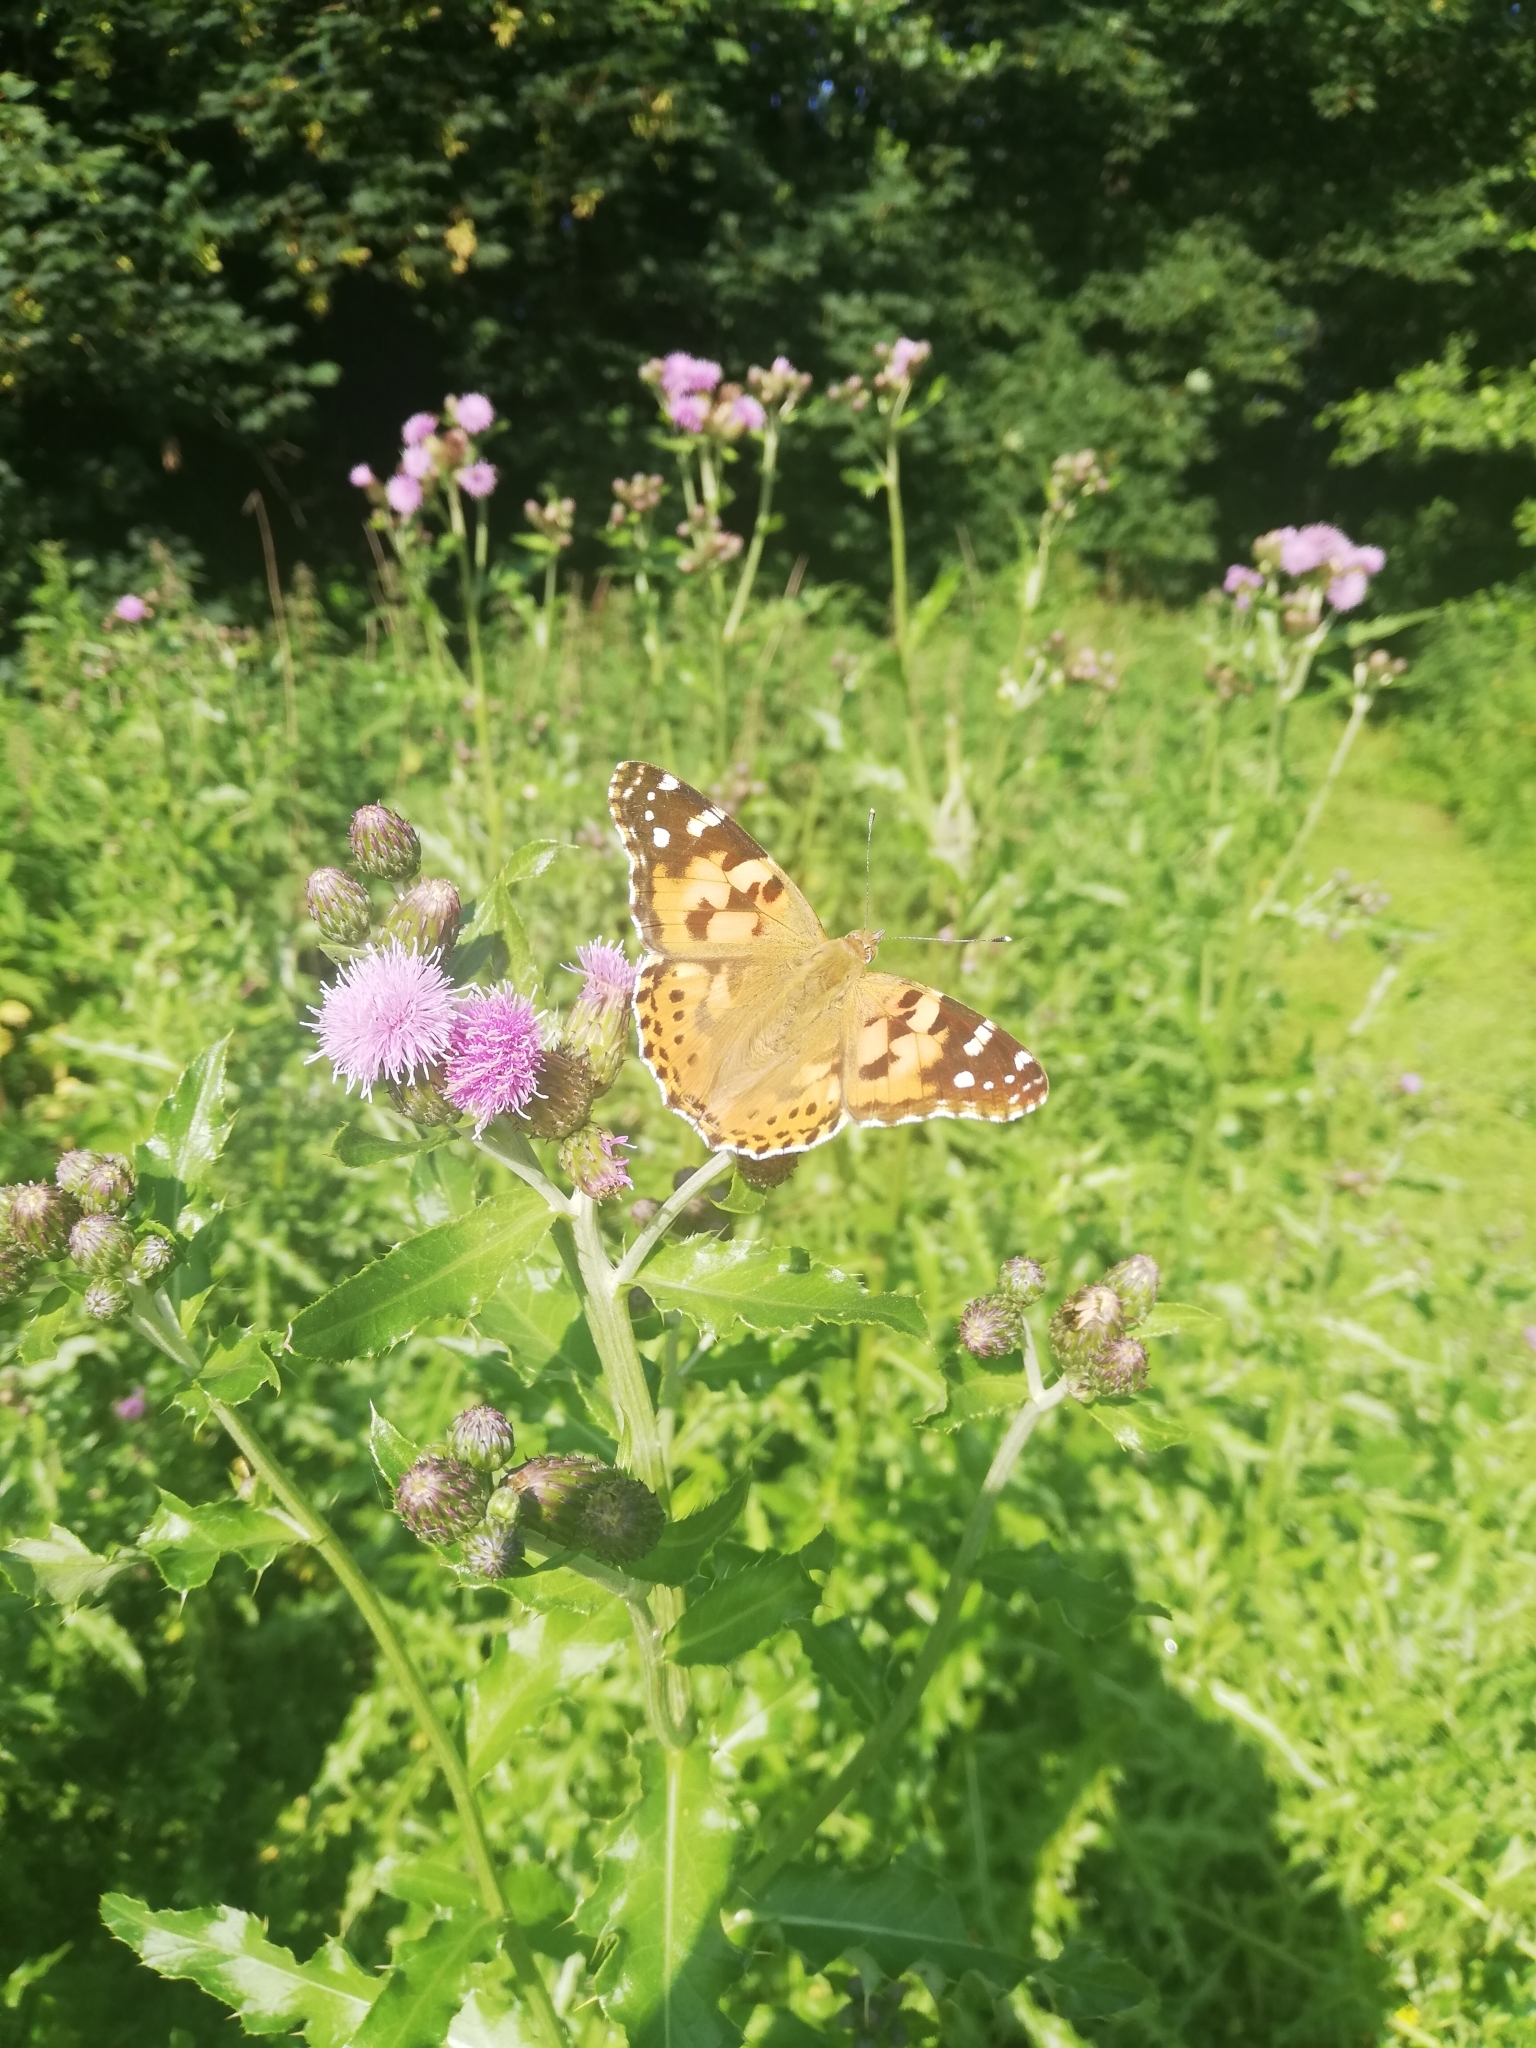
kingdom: Animalia
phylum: Arthropoda
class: Insecta
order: Lepidoptera
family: Nymphalidae
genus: Vanessa
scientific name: Vanessa cardui
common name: Painted lady
